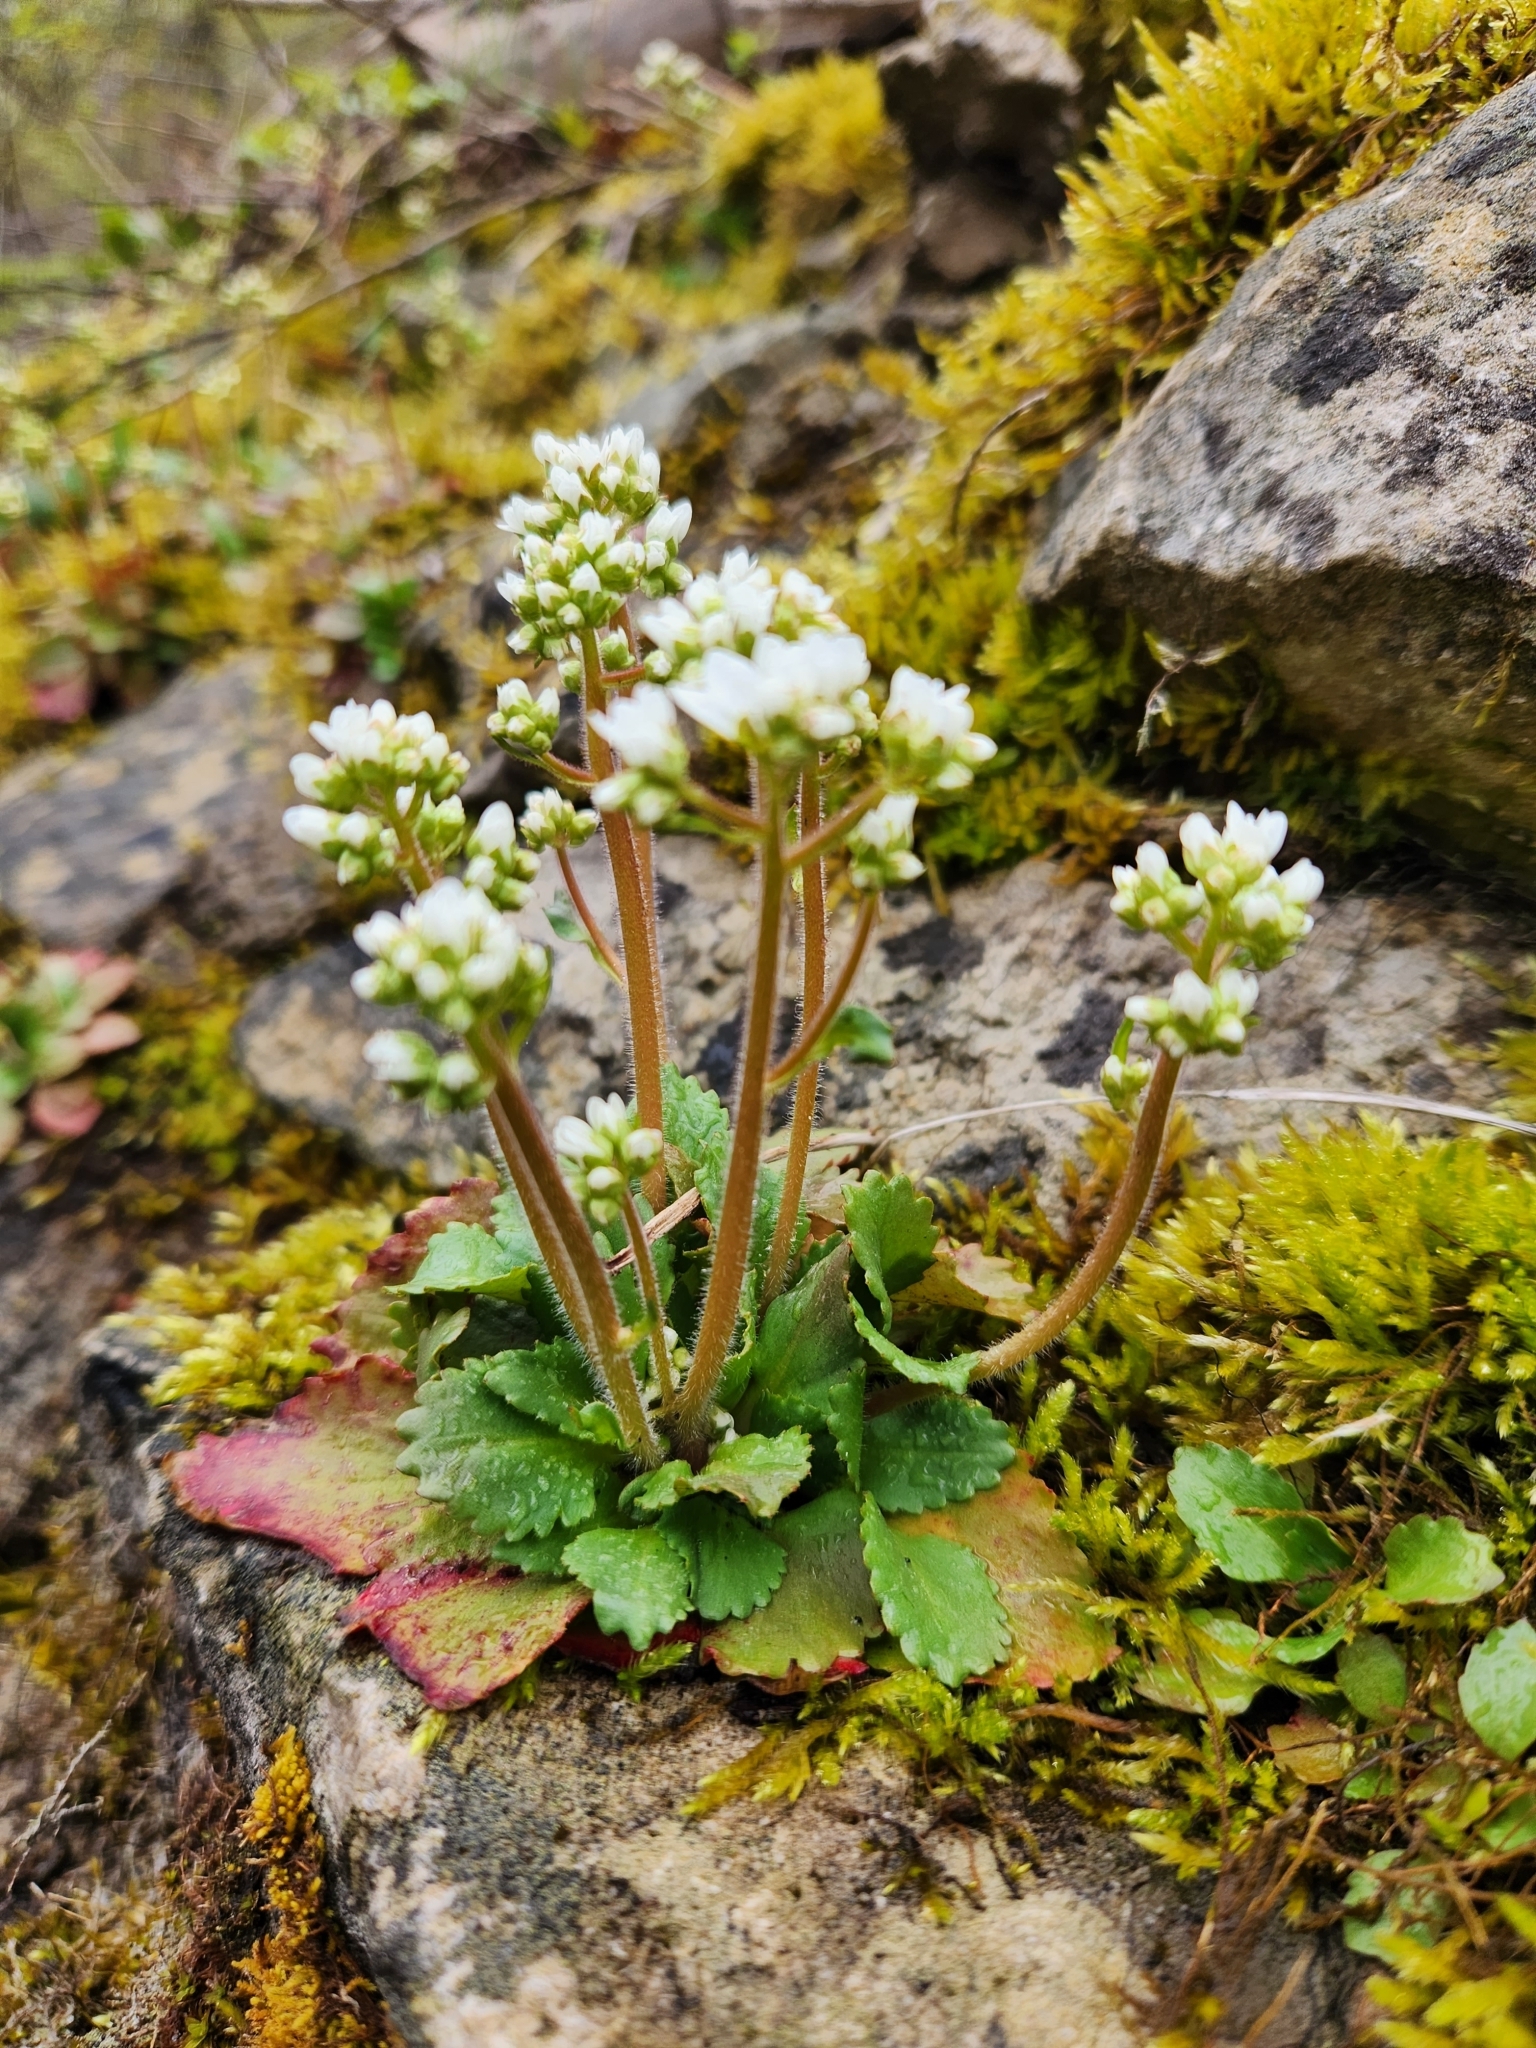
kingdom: Plantae
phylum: Tracheophyta
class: Magnoliopsida
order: Saxifragales
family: Saxifragaceae
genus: Micranthes
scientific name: Micranthes virginiensis
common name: Early saxifrage
